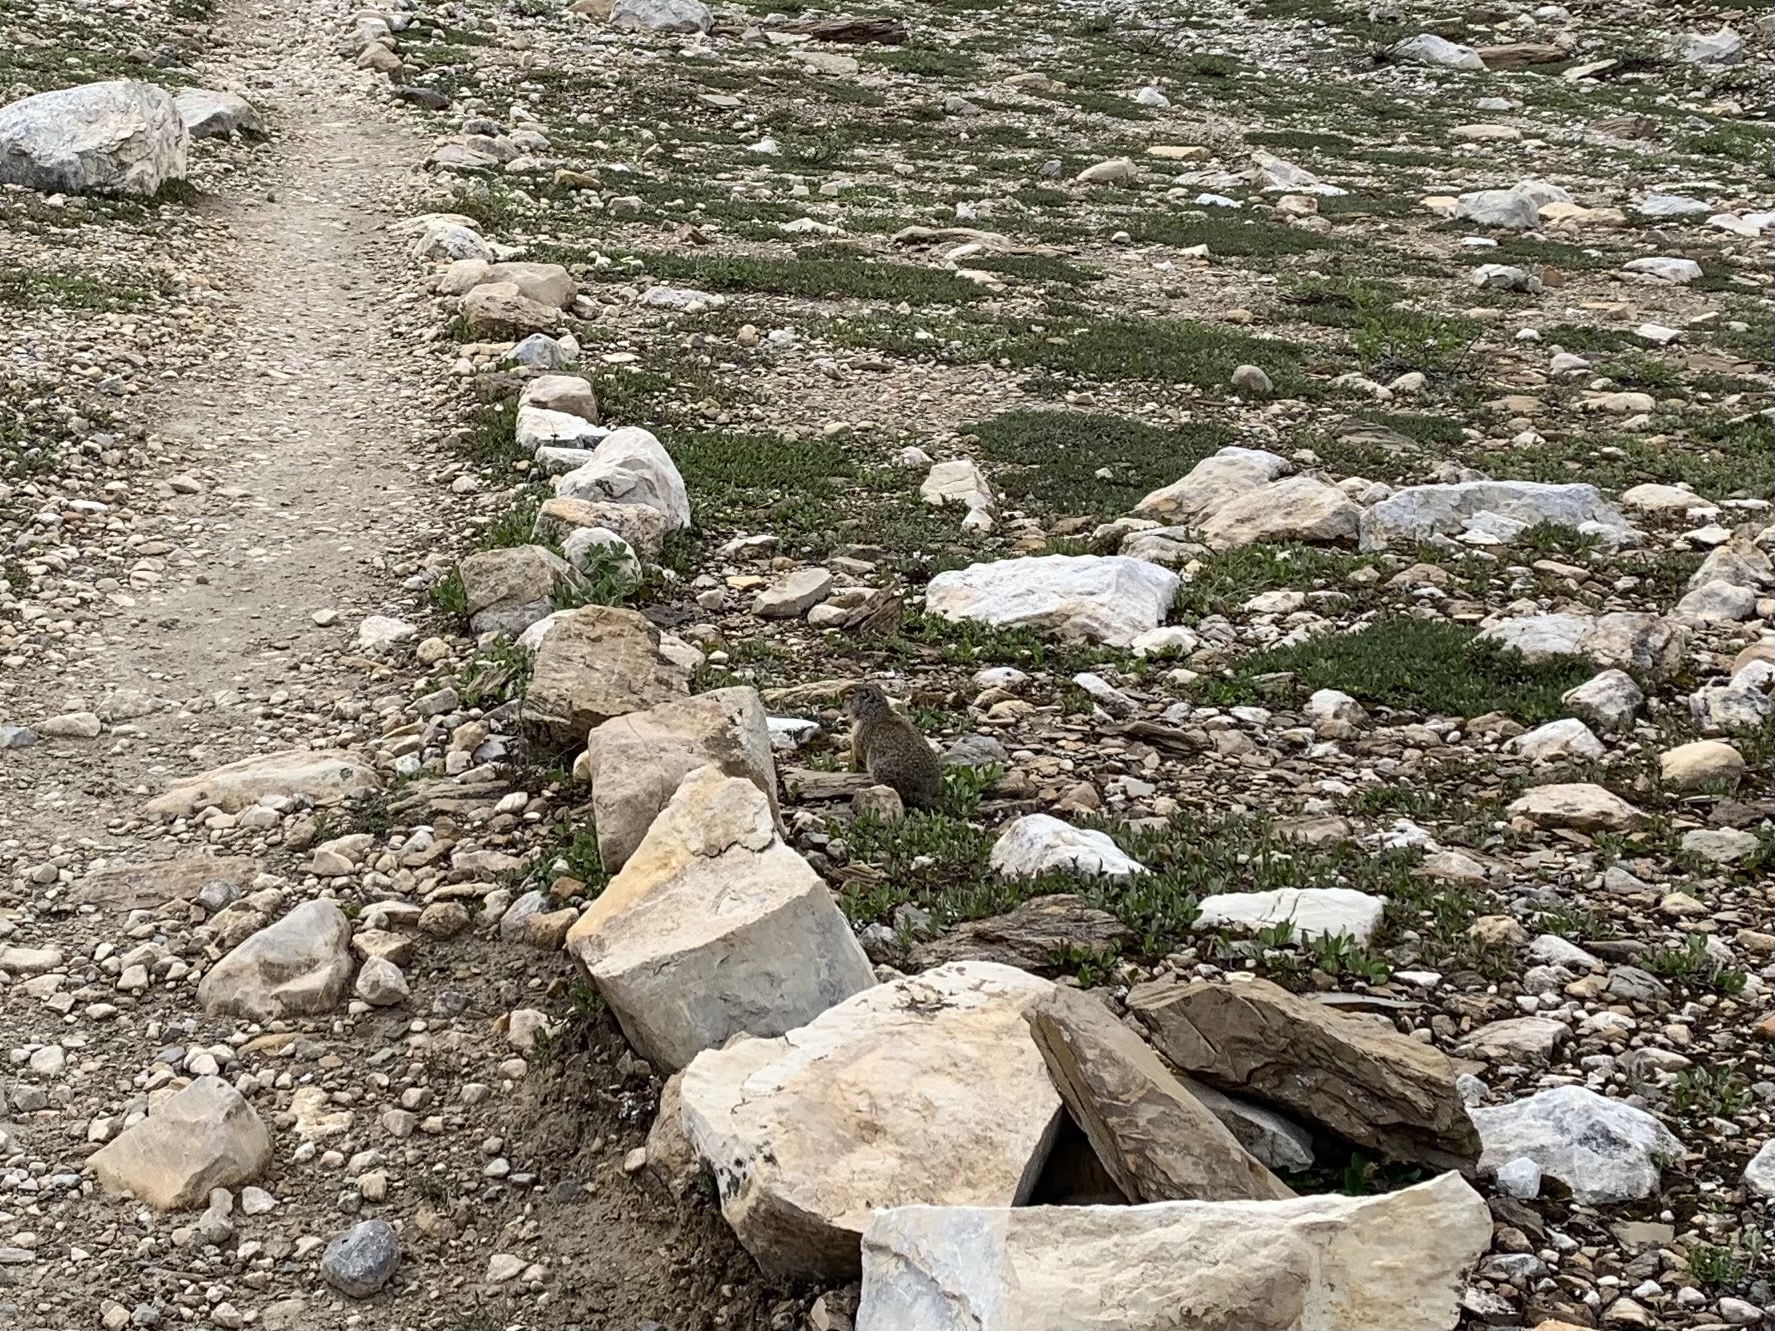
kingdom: Animalia
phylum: Chordata
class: Mammalia
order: Rodentia
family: Sciuridae
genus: Urocitellus
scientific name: Urocitellus columbianus
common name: Columbian ground squirrel
